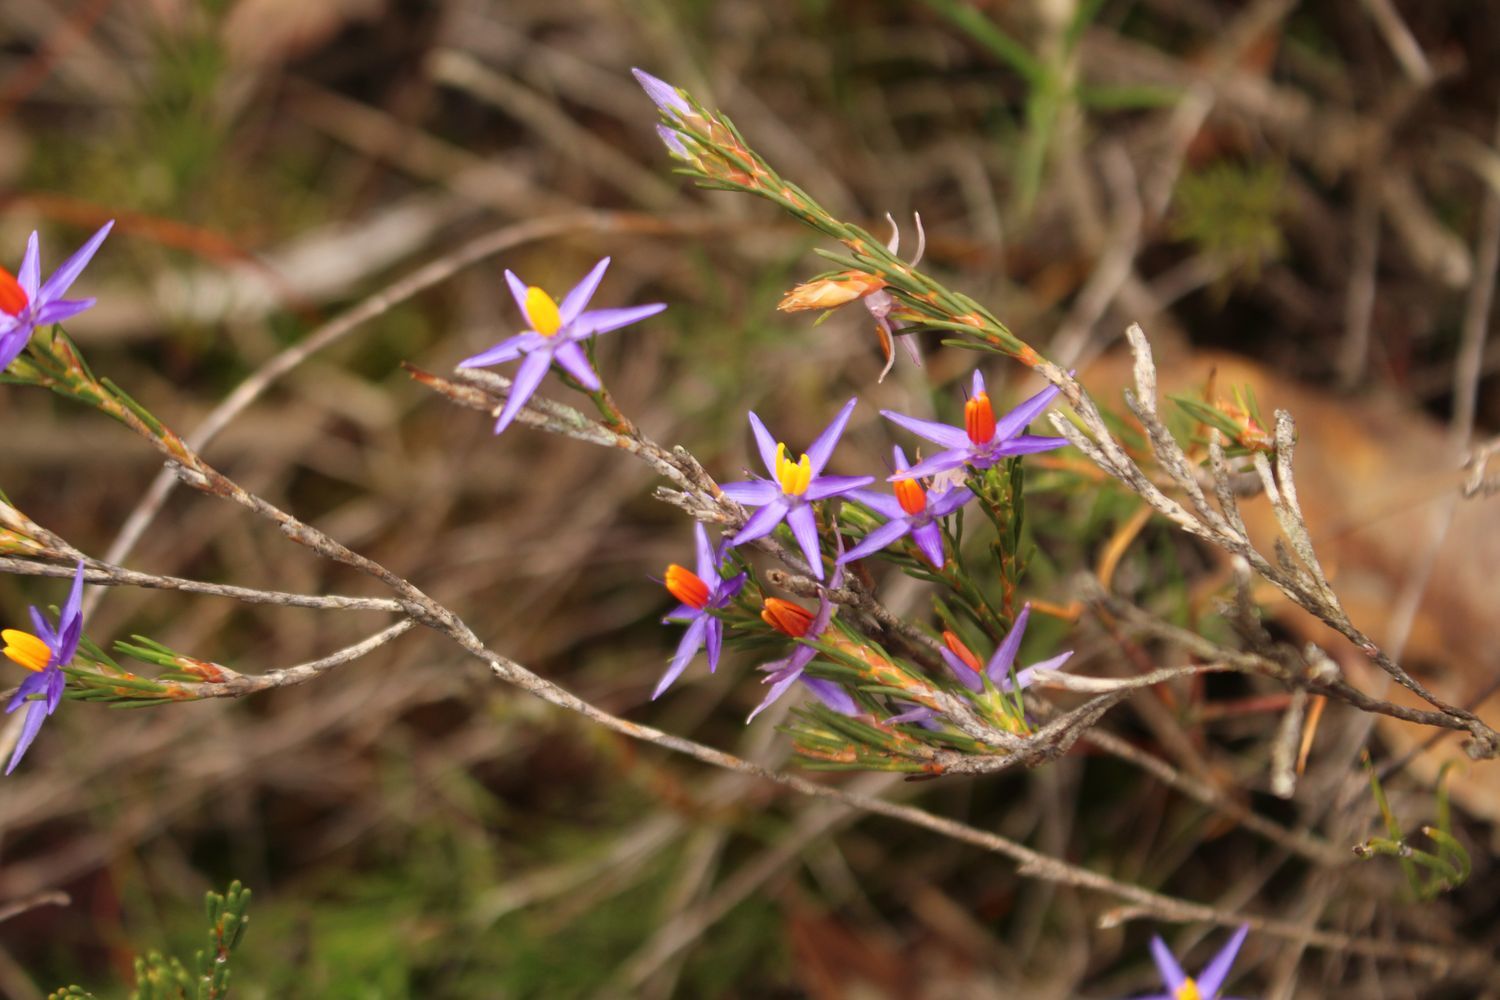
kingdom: Plantae
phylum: Tracheophyta
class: Liliopsida
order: Arecales
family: Dasypogonaceae
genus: Calectasia
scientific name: Calectasia gracilis
